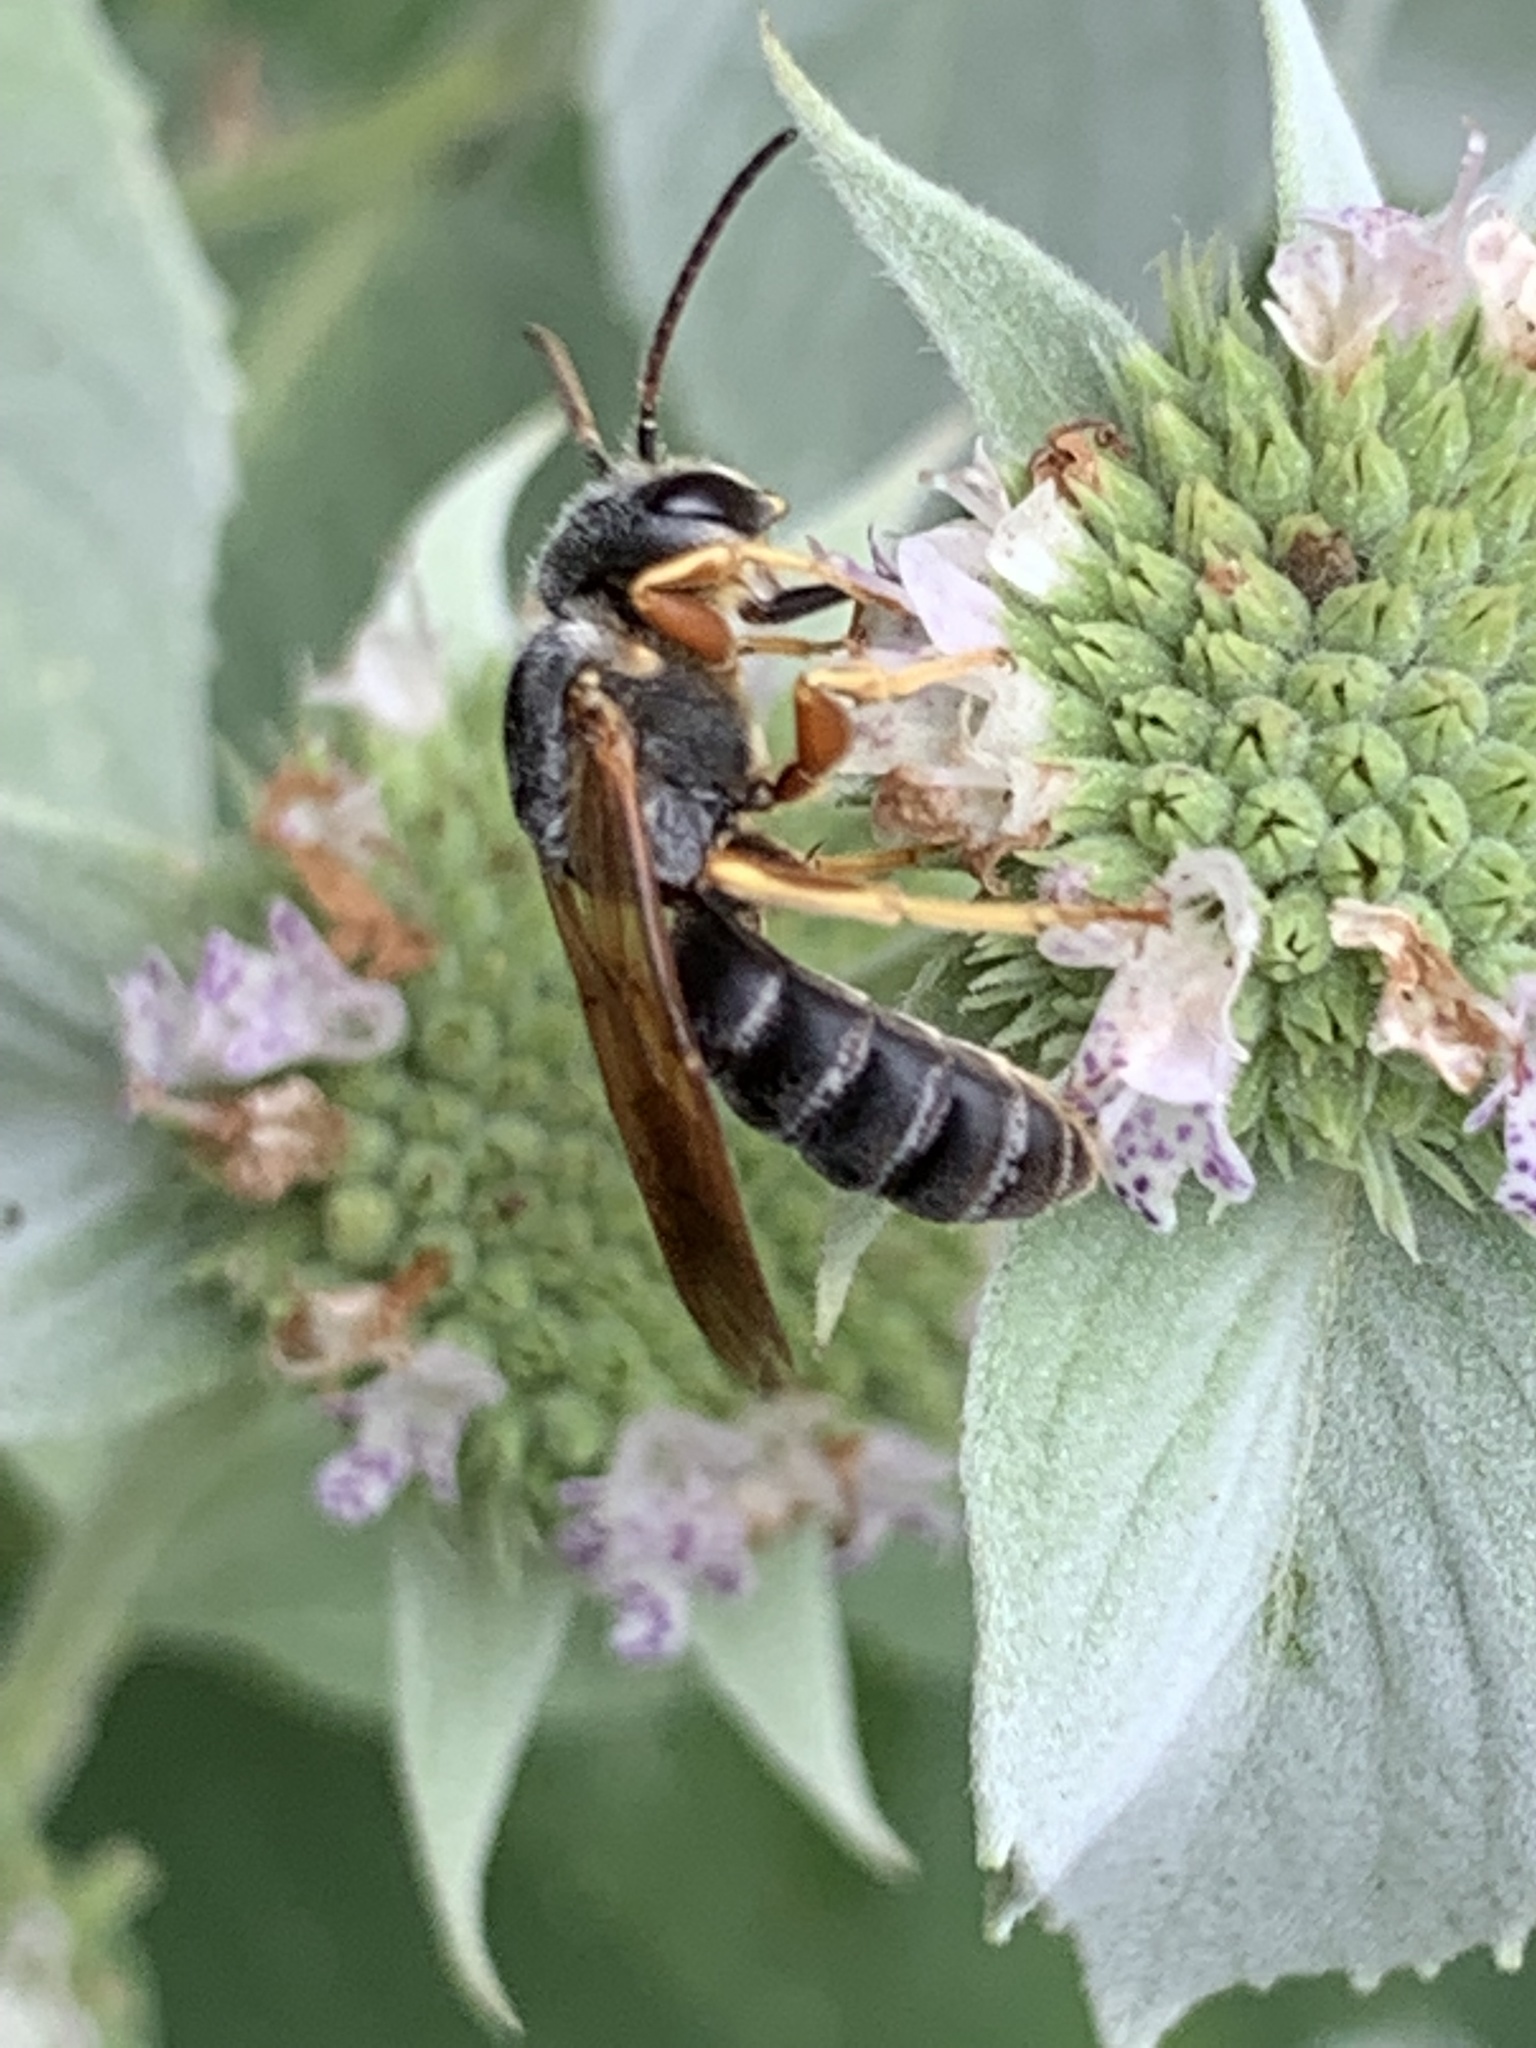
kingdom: Animalia
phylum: Arthropoda
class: Insecta
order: Hymenoptera
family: Halictidae
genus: Halictus
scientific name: Halictus parallelus
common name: Parallel-striped sweat bee
